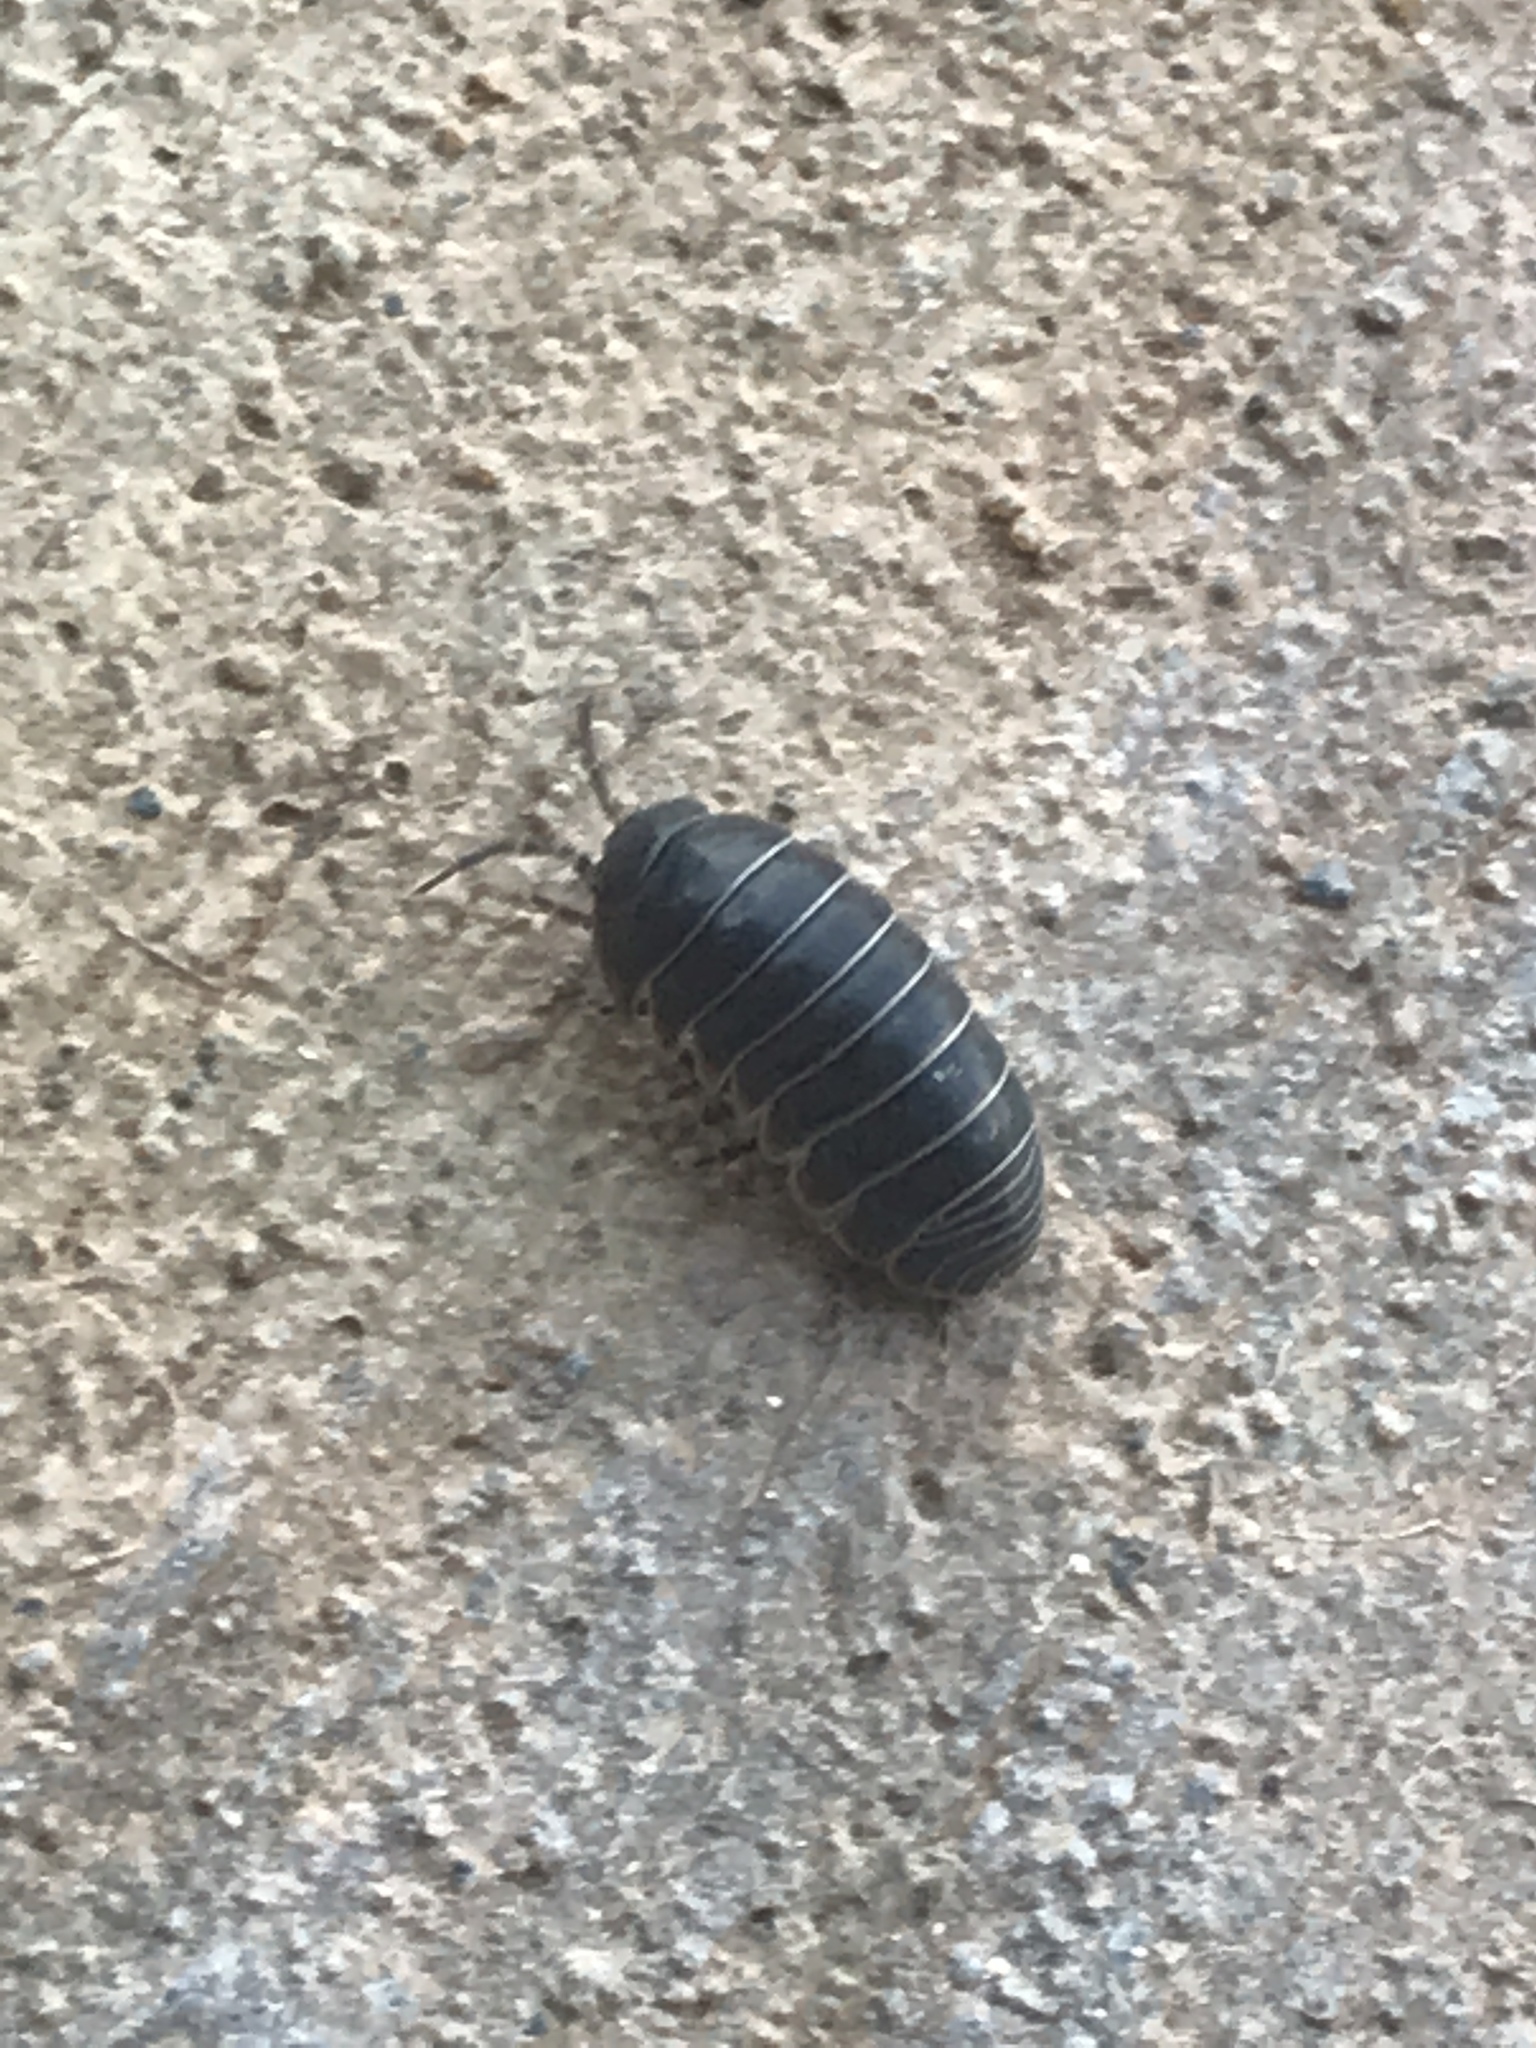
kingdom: Animalia
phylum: Arthropoda
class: Malacostraca
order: Isopoda
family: Armadillidiidae
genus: Armadillidium
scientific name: Armadillidium vulgare
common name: Common pill woodlouse
